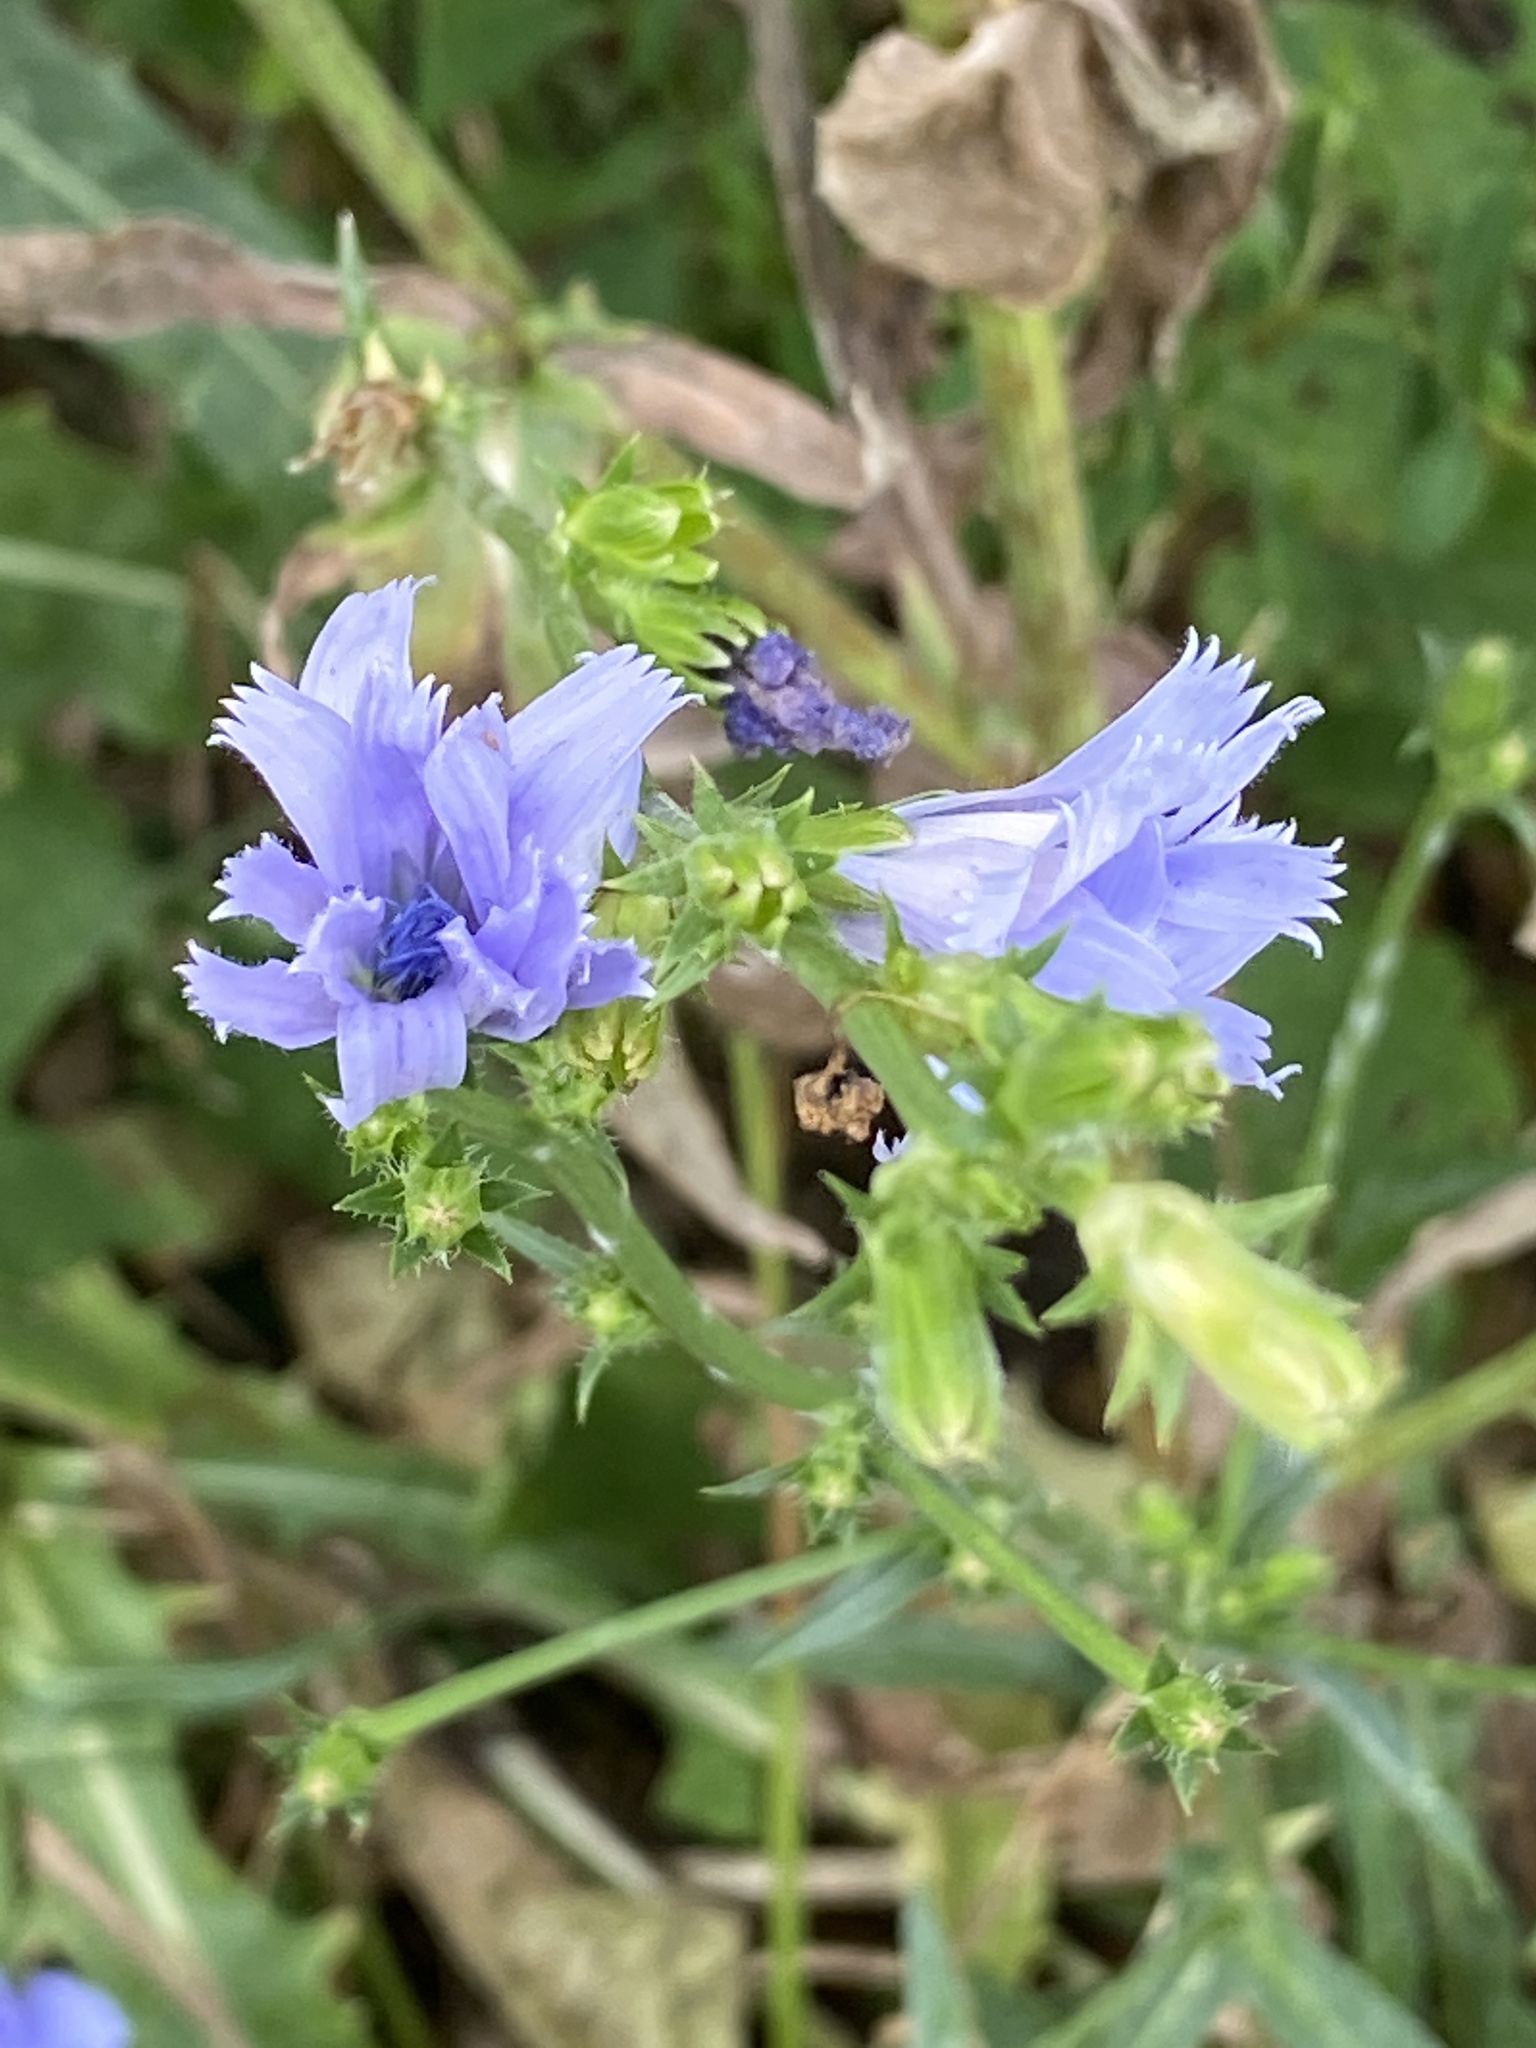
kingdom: Plantae
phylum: Tracheophyta
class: Magnoliopsida
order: Asterales
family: Asteraceae
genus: Cichorium
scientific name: Cichorium intybus
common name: Chicory
